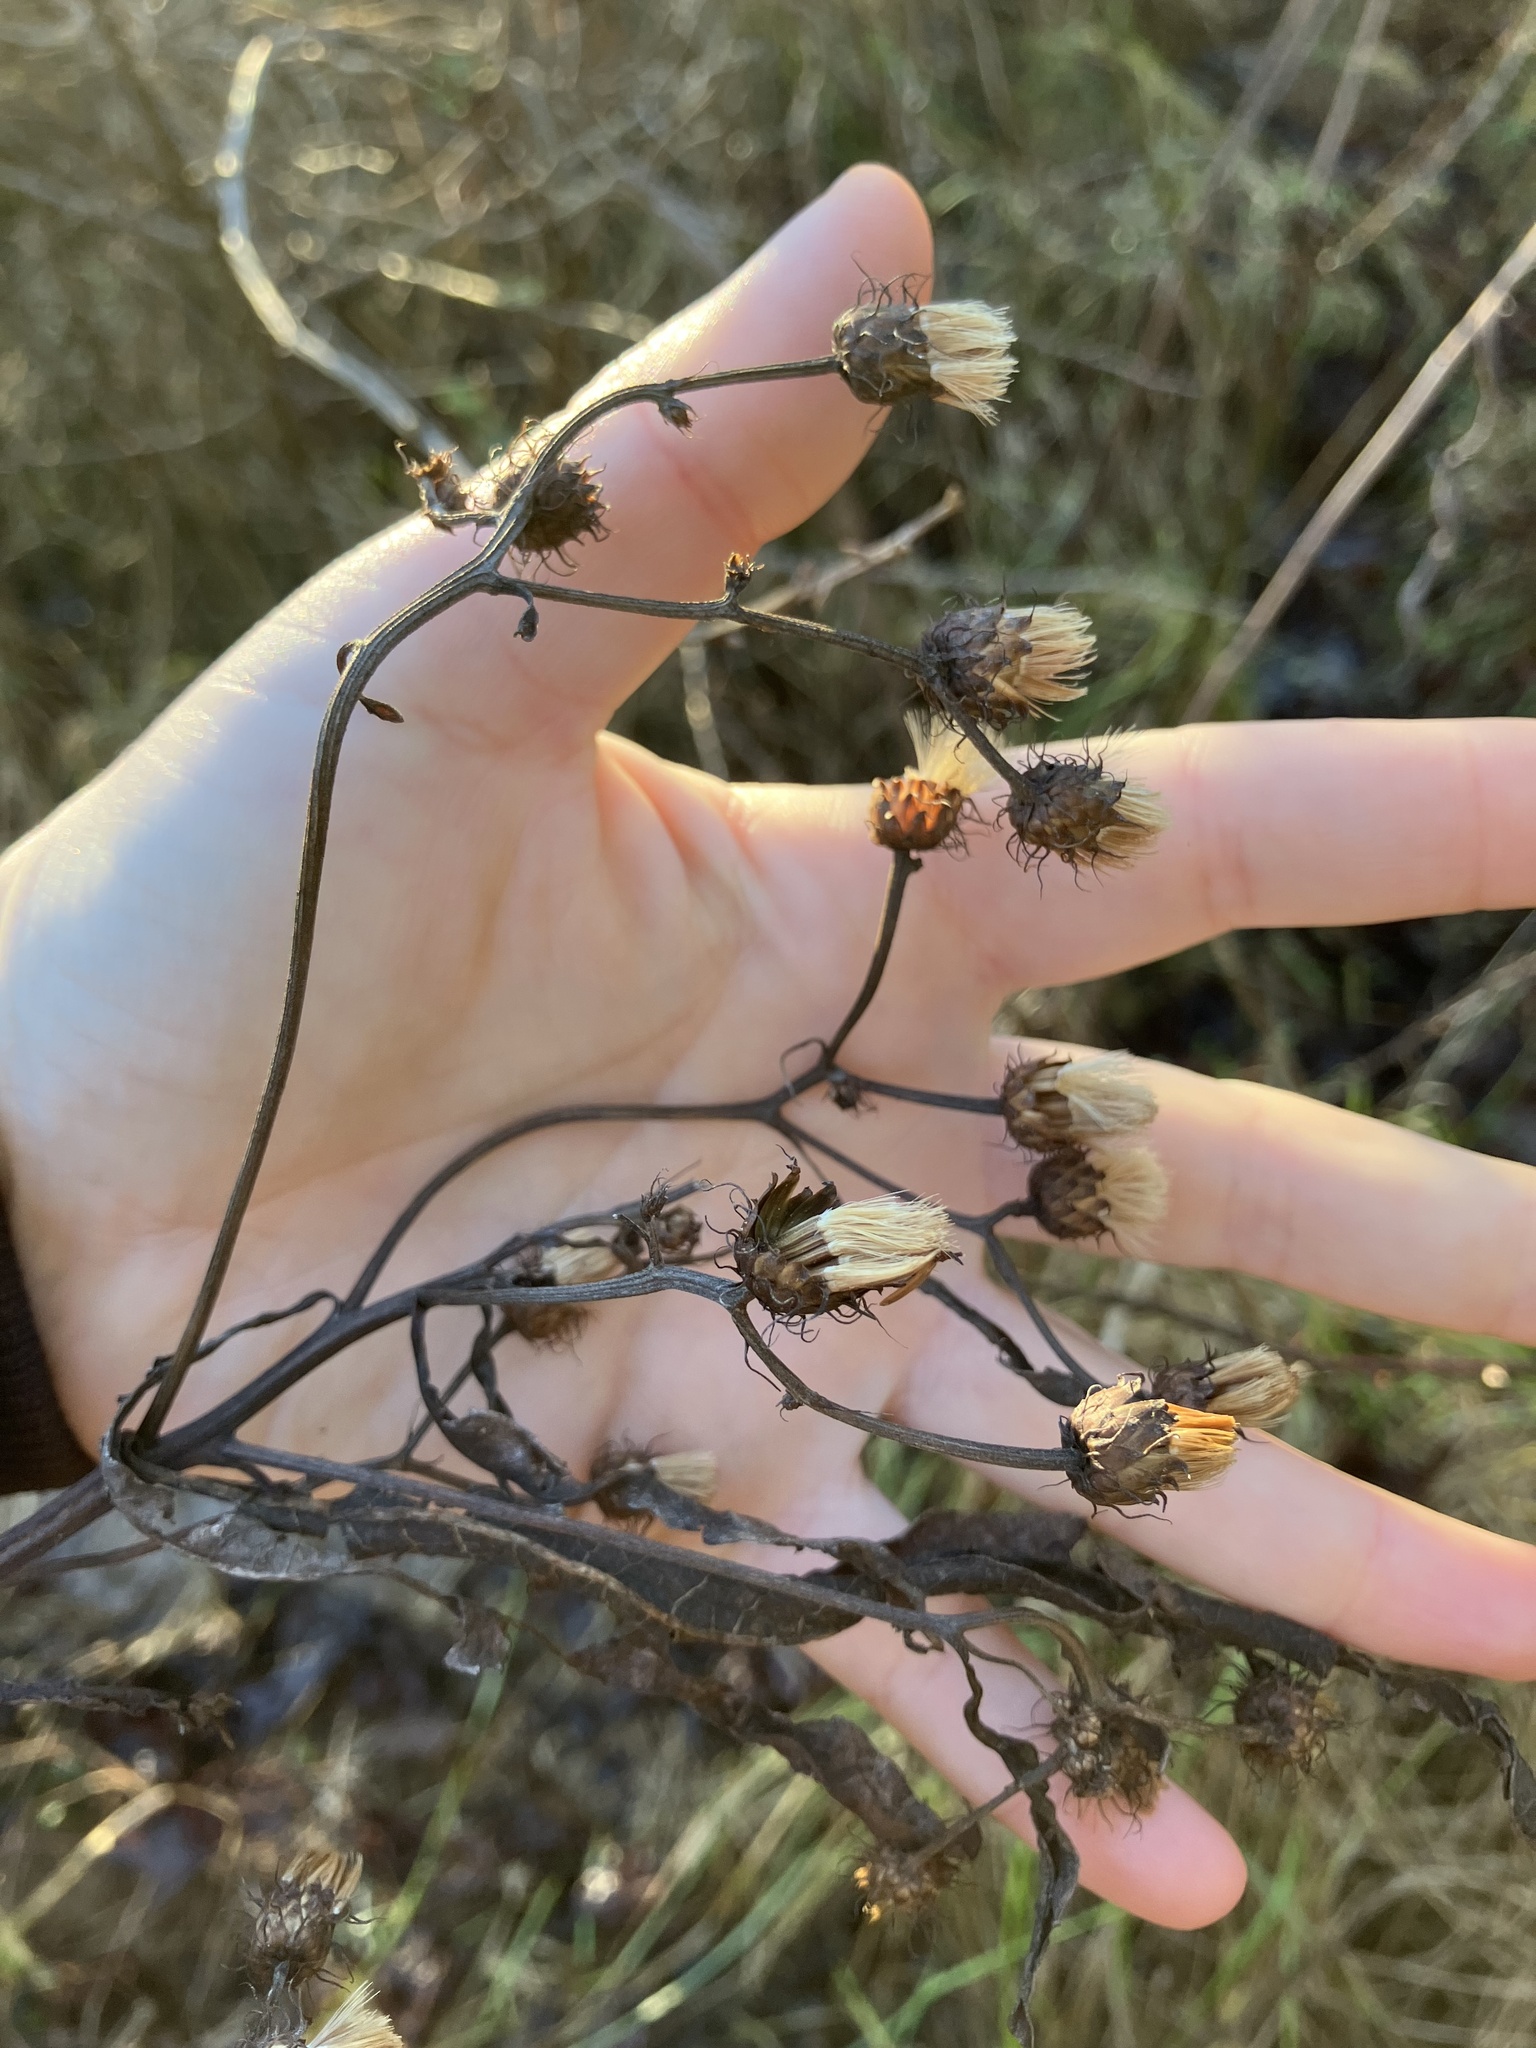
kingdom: Plantae
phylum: Tracheophyta
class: Magnoliopsida
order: Asterales
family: Asteraceae
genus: Vernonia
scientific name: Vernonia noveboracensis
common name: New york ironweed
